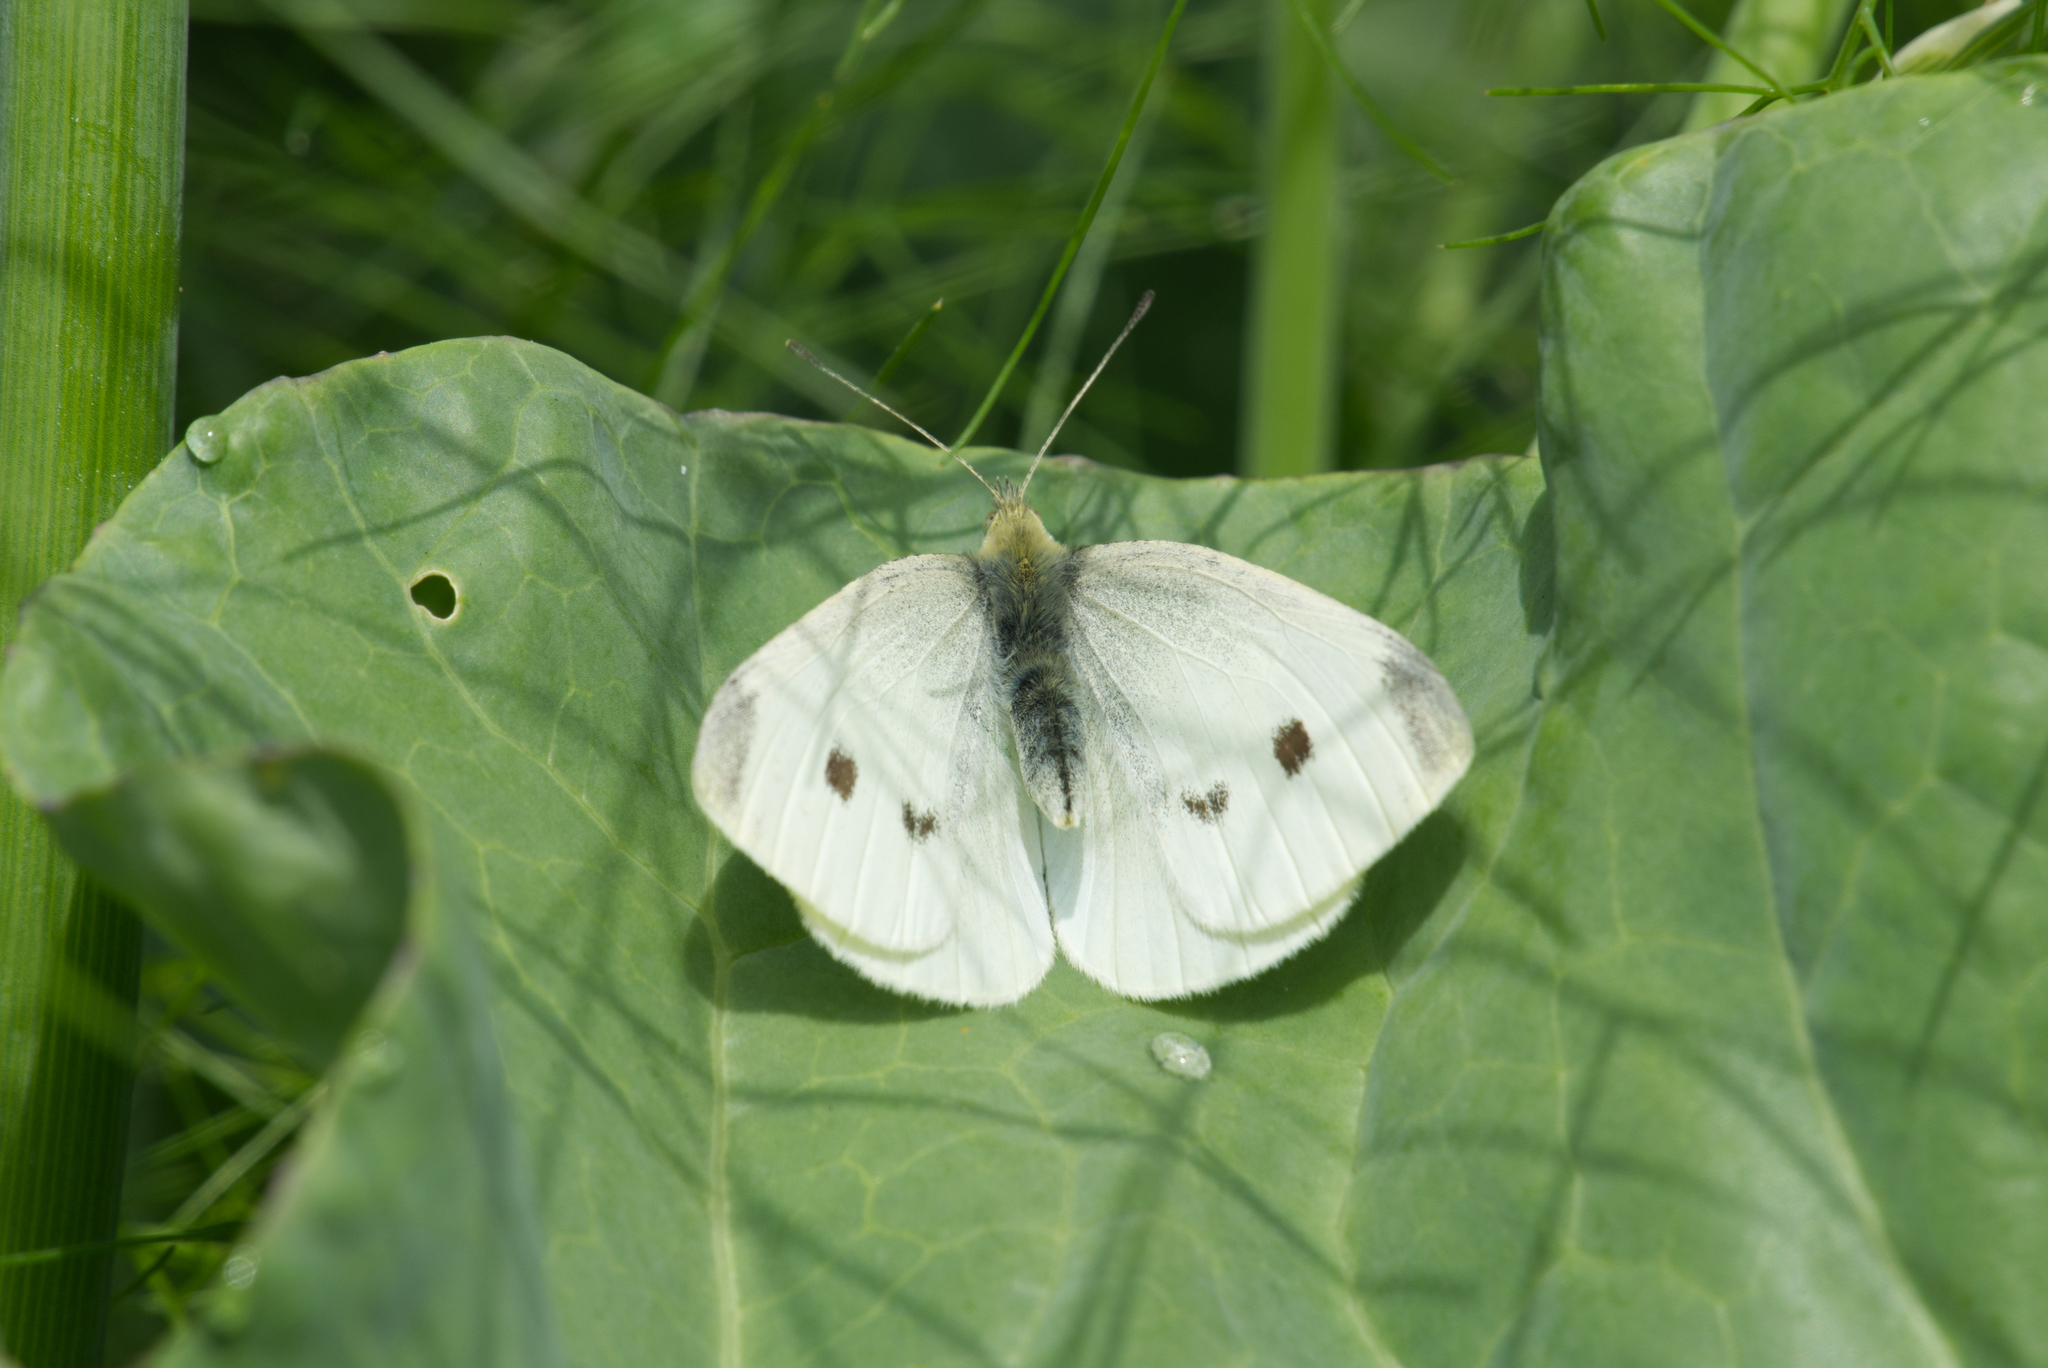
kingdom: Animalia
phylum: Arthropoda
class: Insecta
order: Lepidoptera
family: Pieridae
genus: Pieris
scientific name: Pieris rapae
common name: Small white
